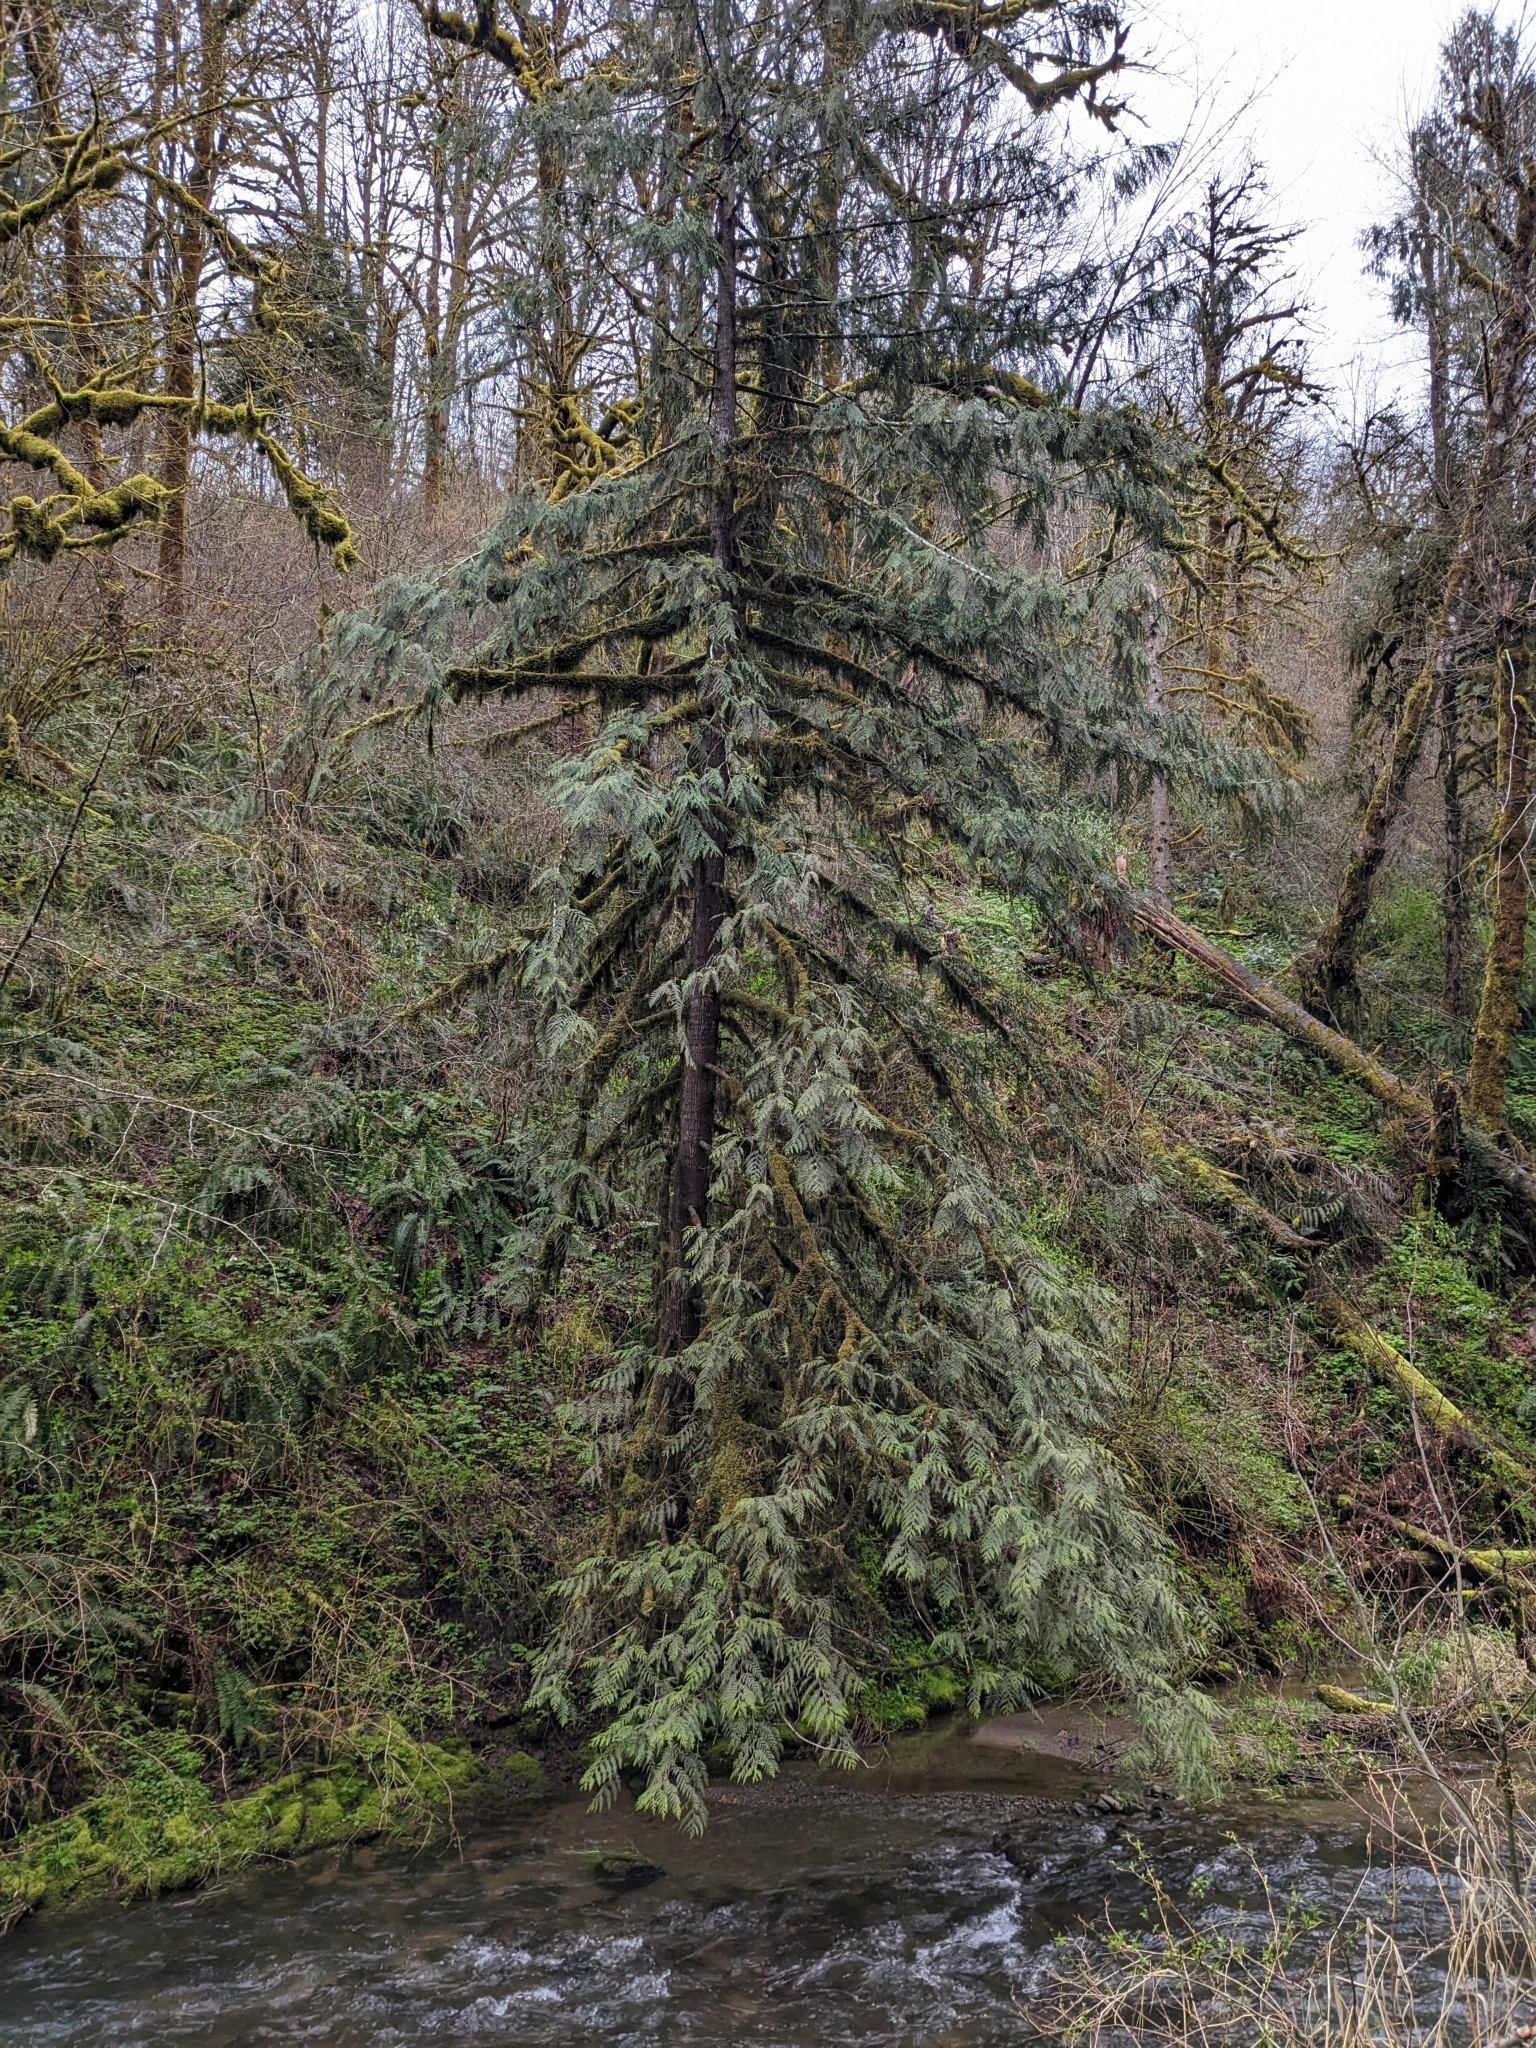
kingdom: Plantae
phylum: Tracheophyta
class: Pinopsida
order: Pinales
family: Cupressaceae
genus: Thuja
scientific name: Thuja plicata
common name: Western red-cedar
